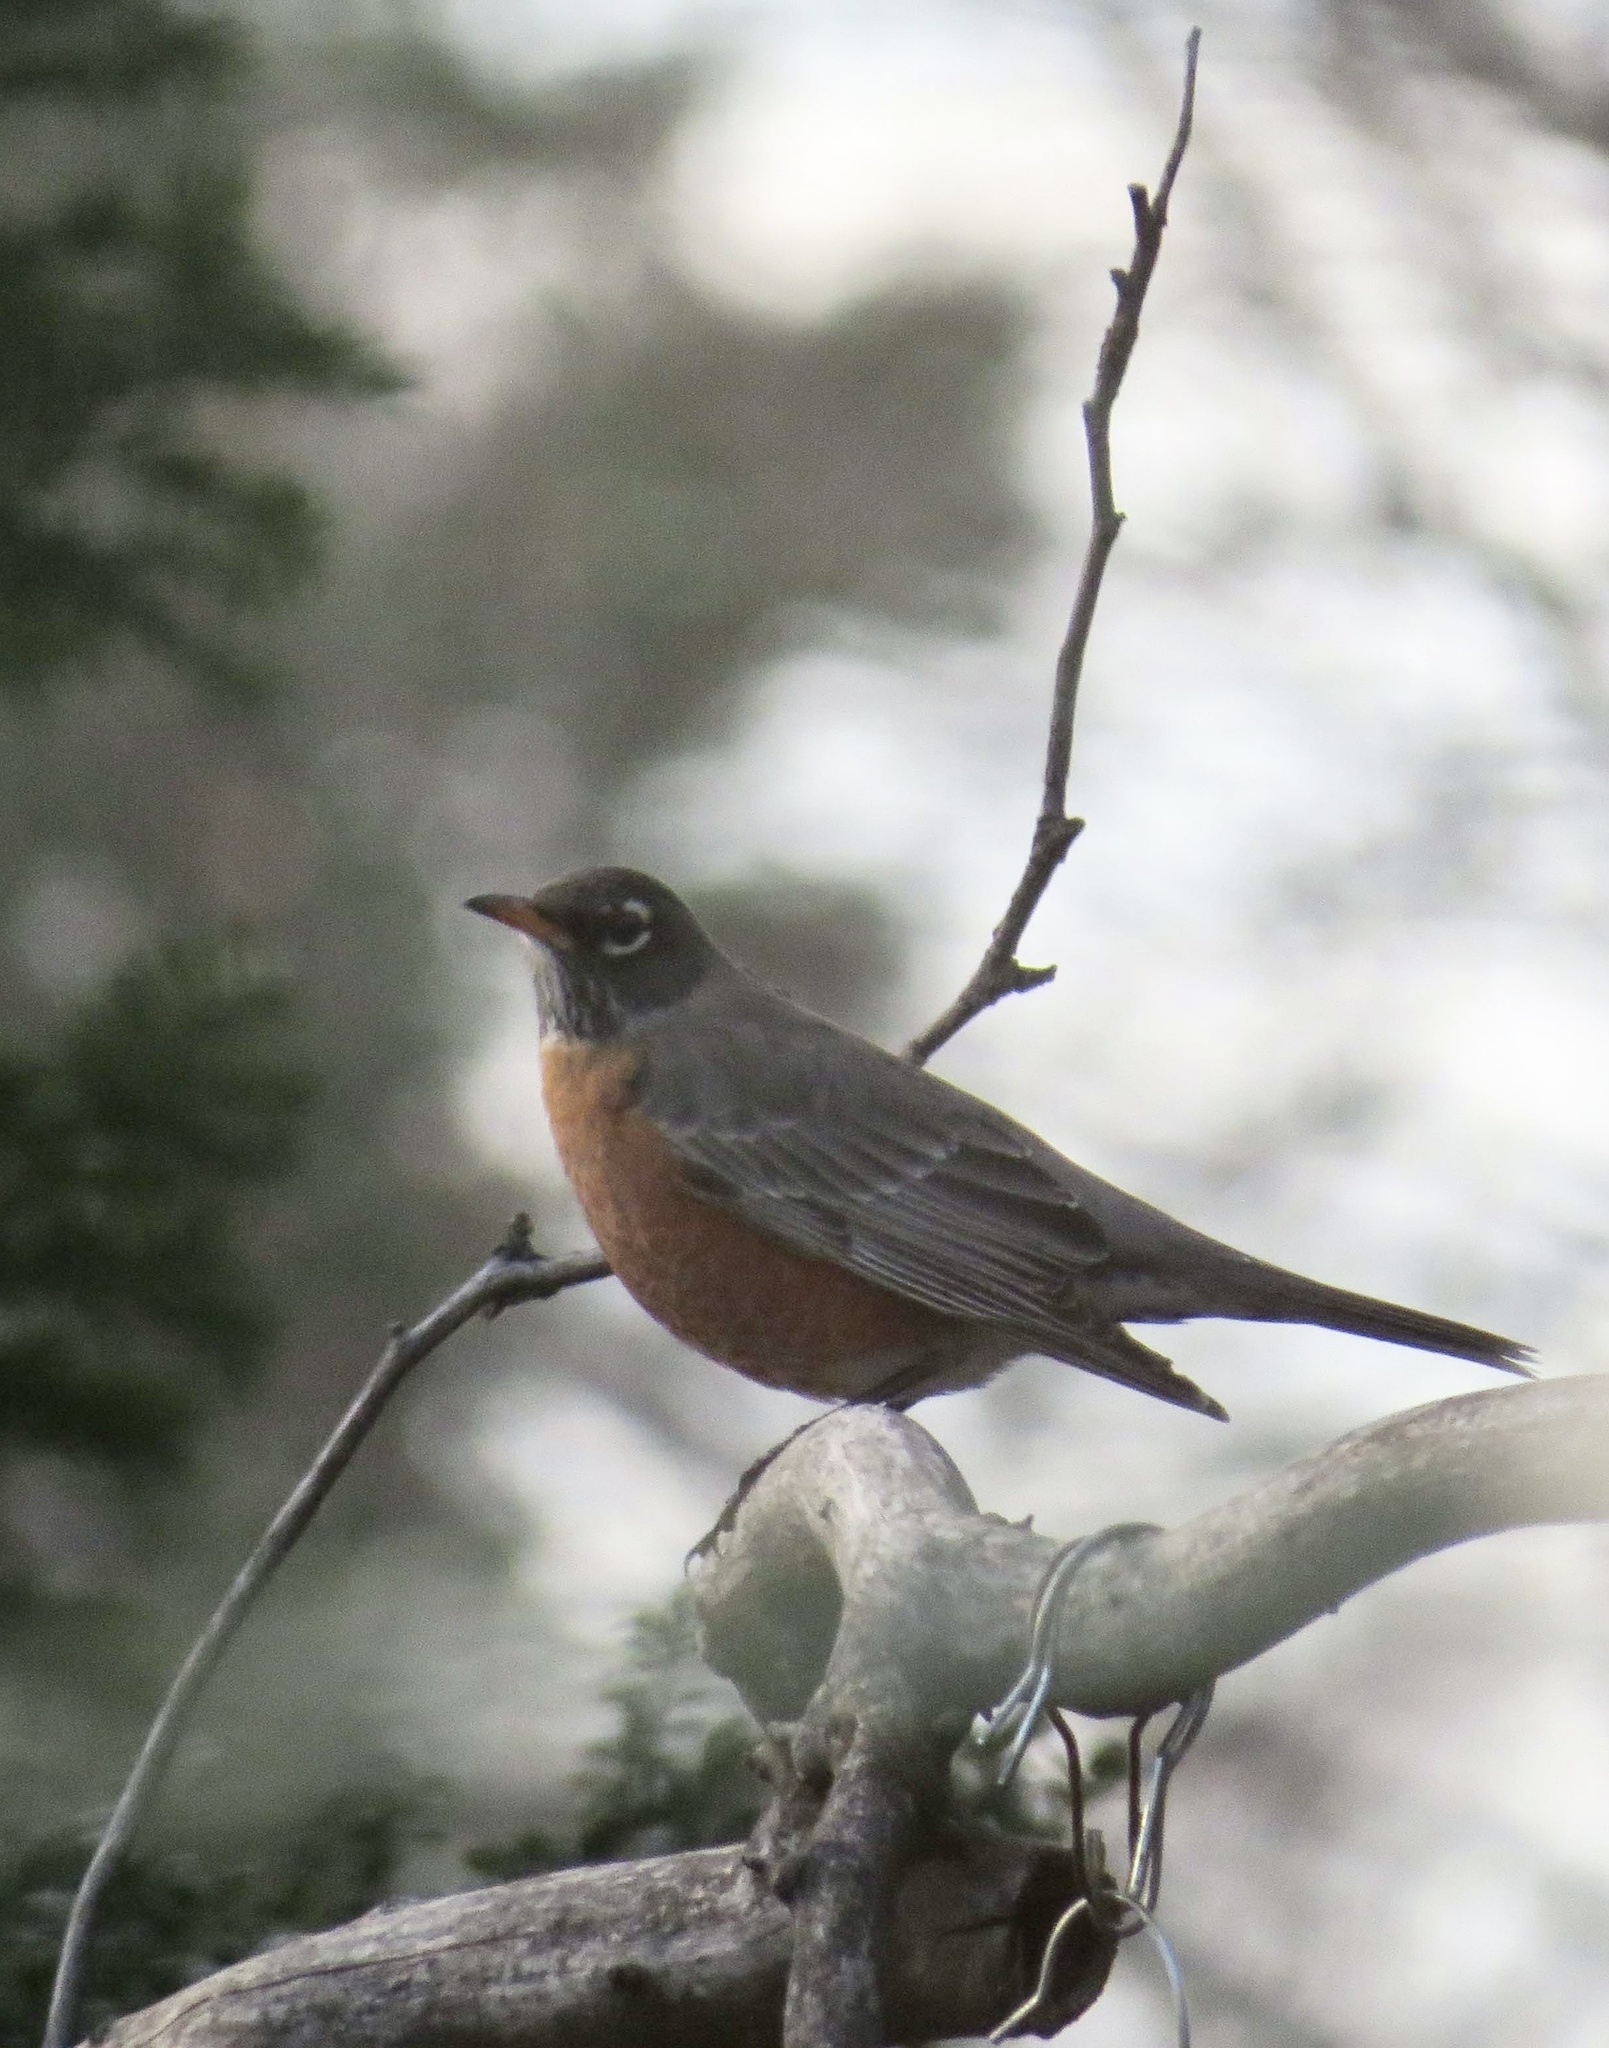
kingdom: Animalia
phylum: Chordata
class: Aves
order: Passeriformes
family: Turdidae
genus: Turdus
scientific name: Turdus migratorius
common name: American robin
